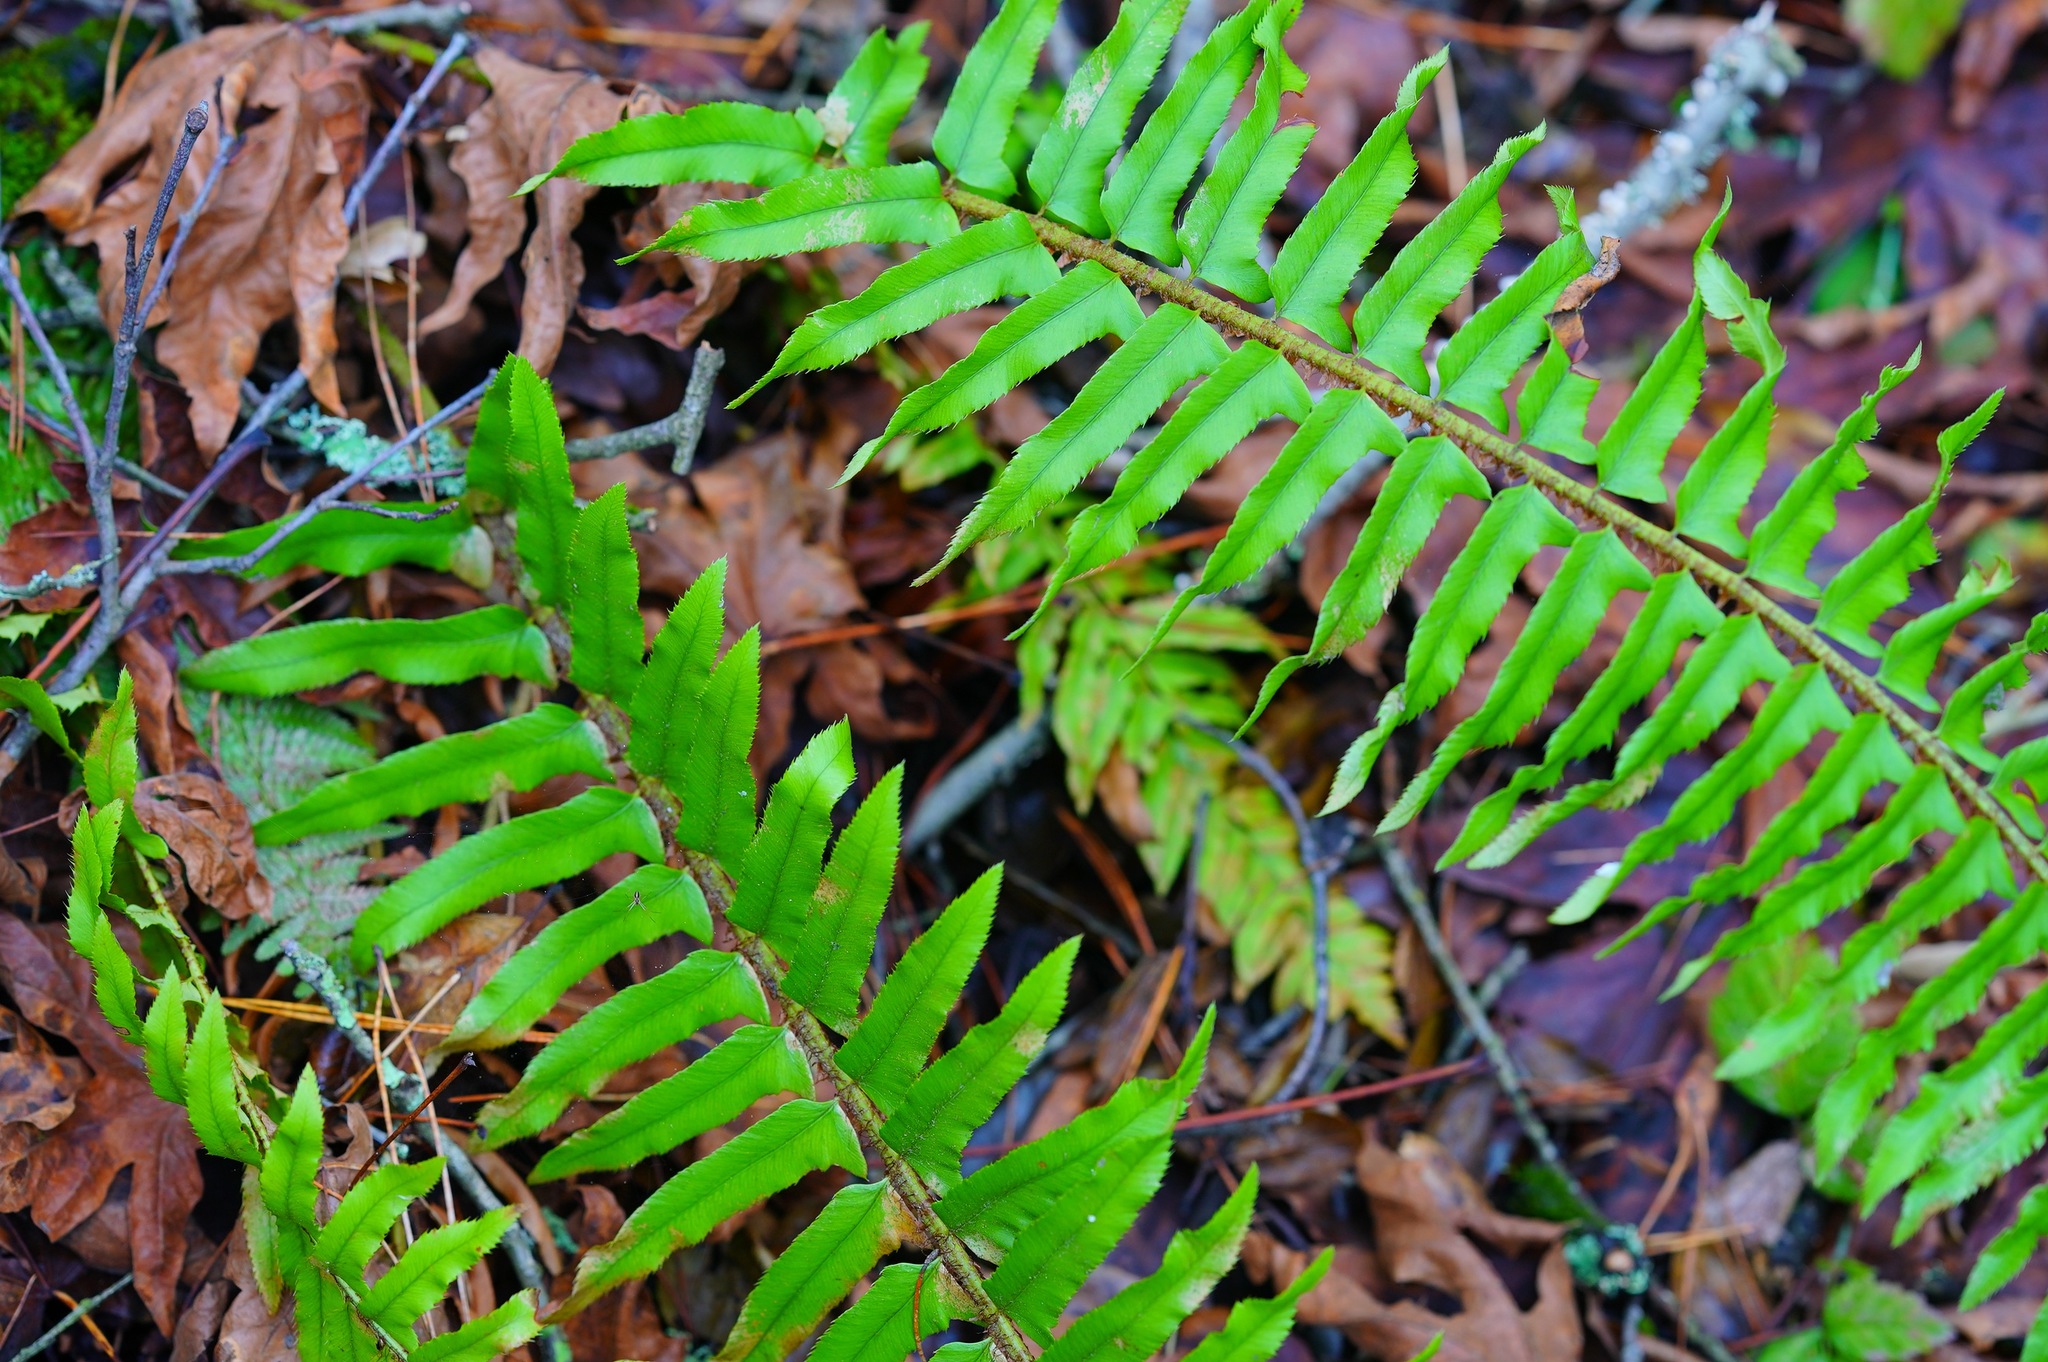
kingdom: Plantae
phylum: Tracheophyta
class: Polypodiopsida
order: Polypodiales
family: Dryopteridaceae
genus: Polystichum
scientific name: Polystichum munitum
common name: Western sword-fern
